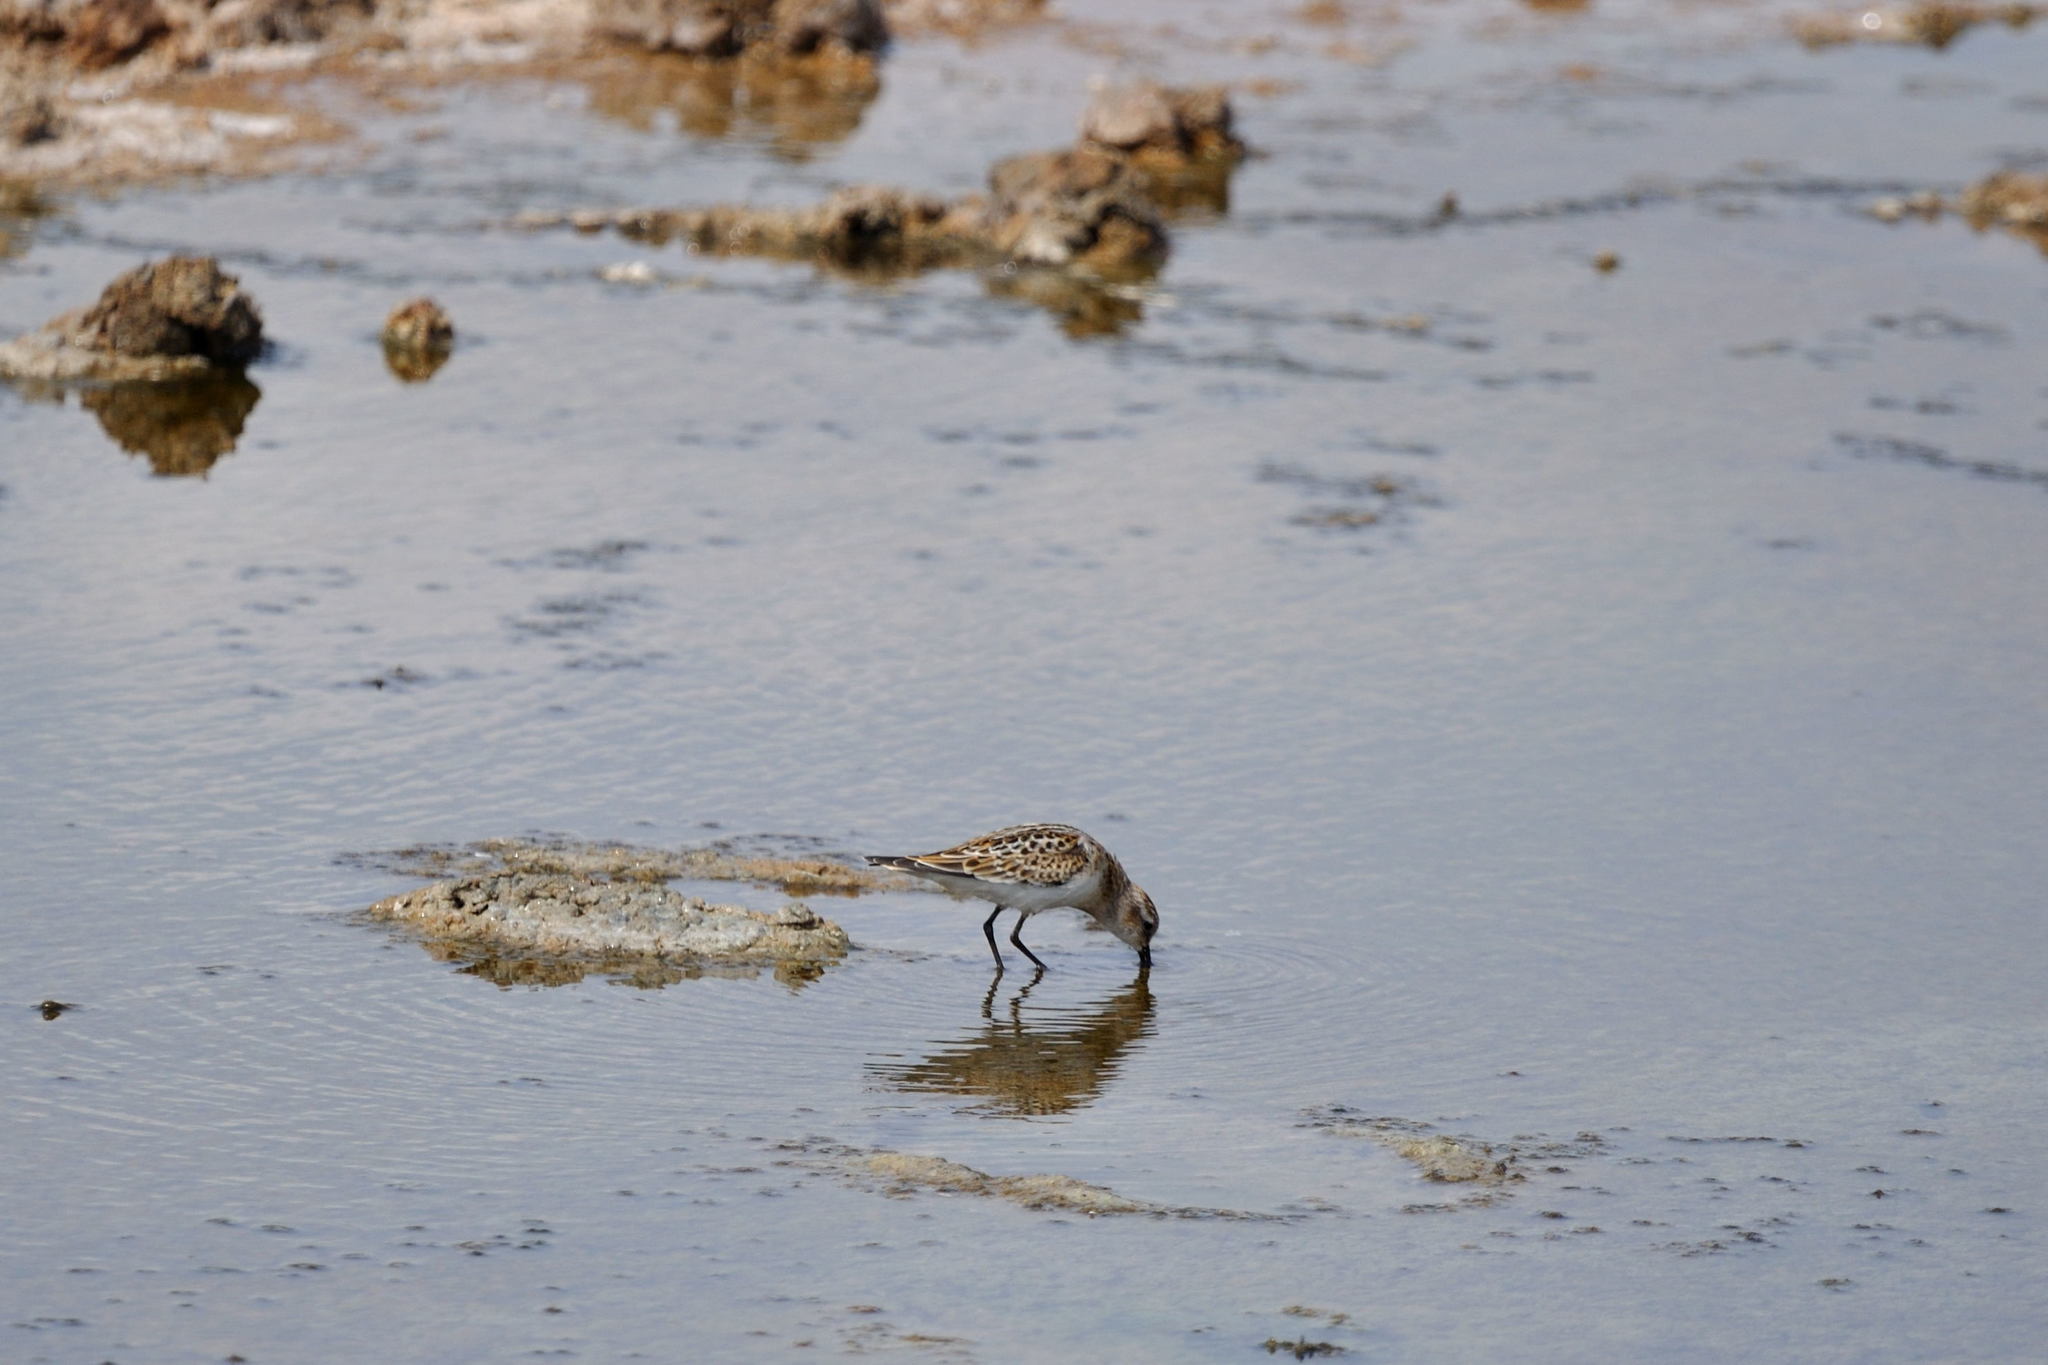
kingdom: Animalia
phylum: Chordata
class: Aves
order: Charadriiformes
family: Scolopacidae
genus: Calidris
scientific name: Calidris minuta
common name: Little stint
